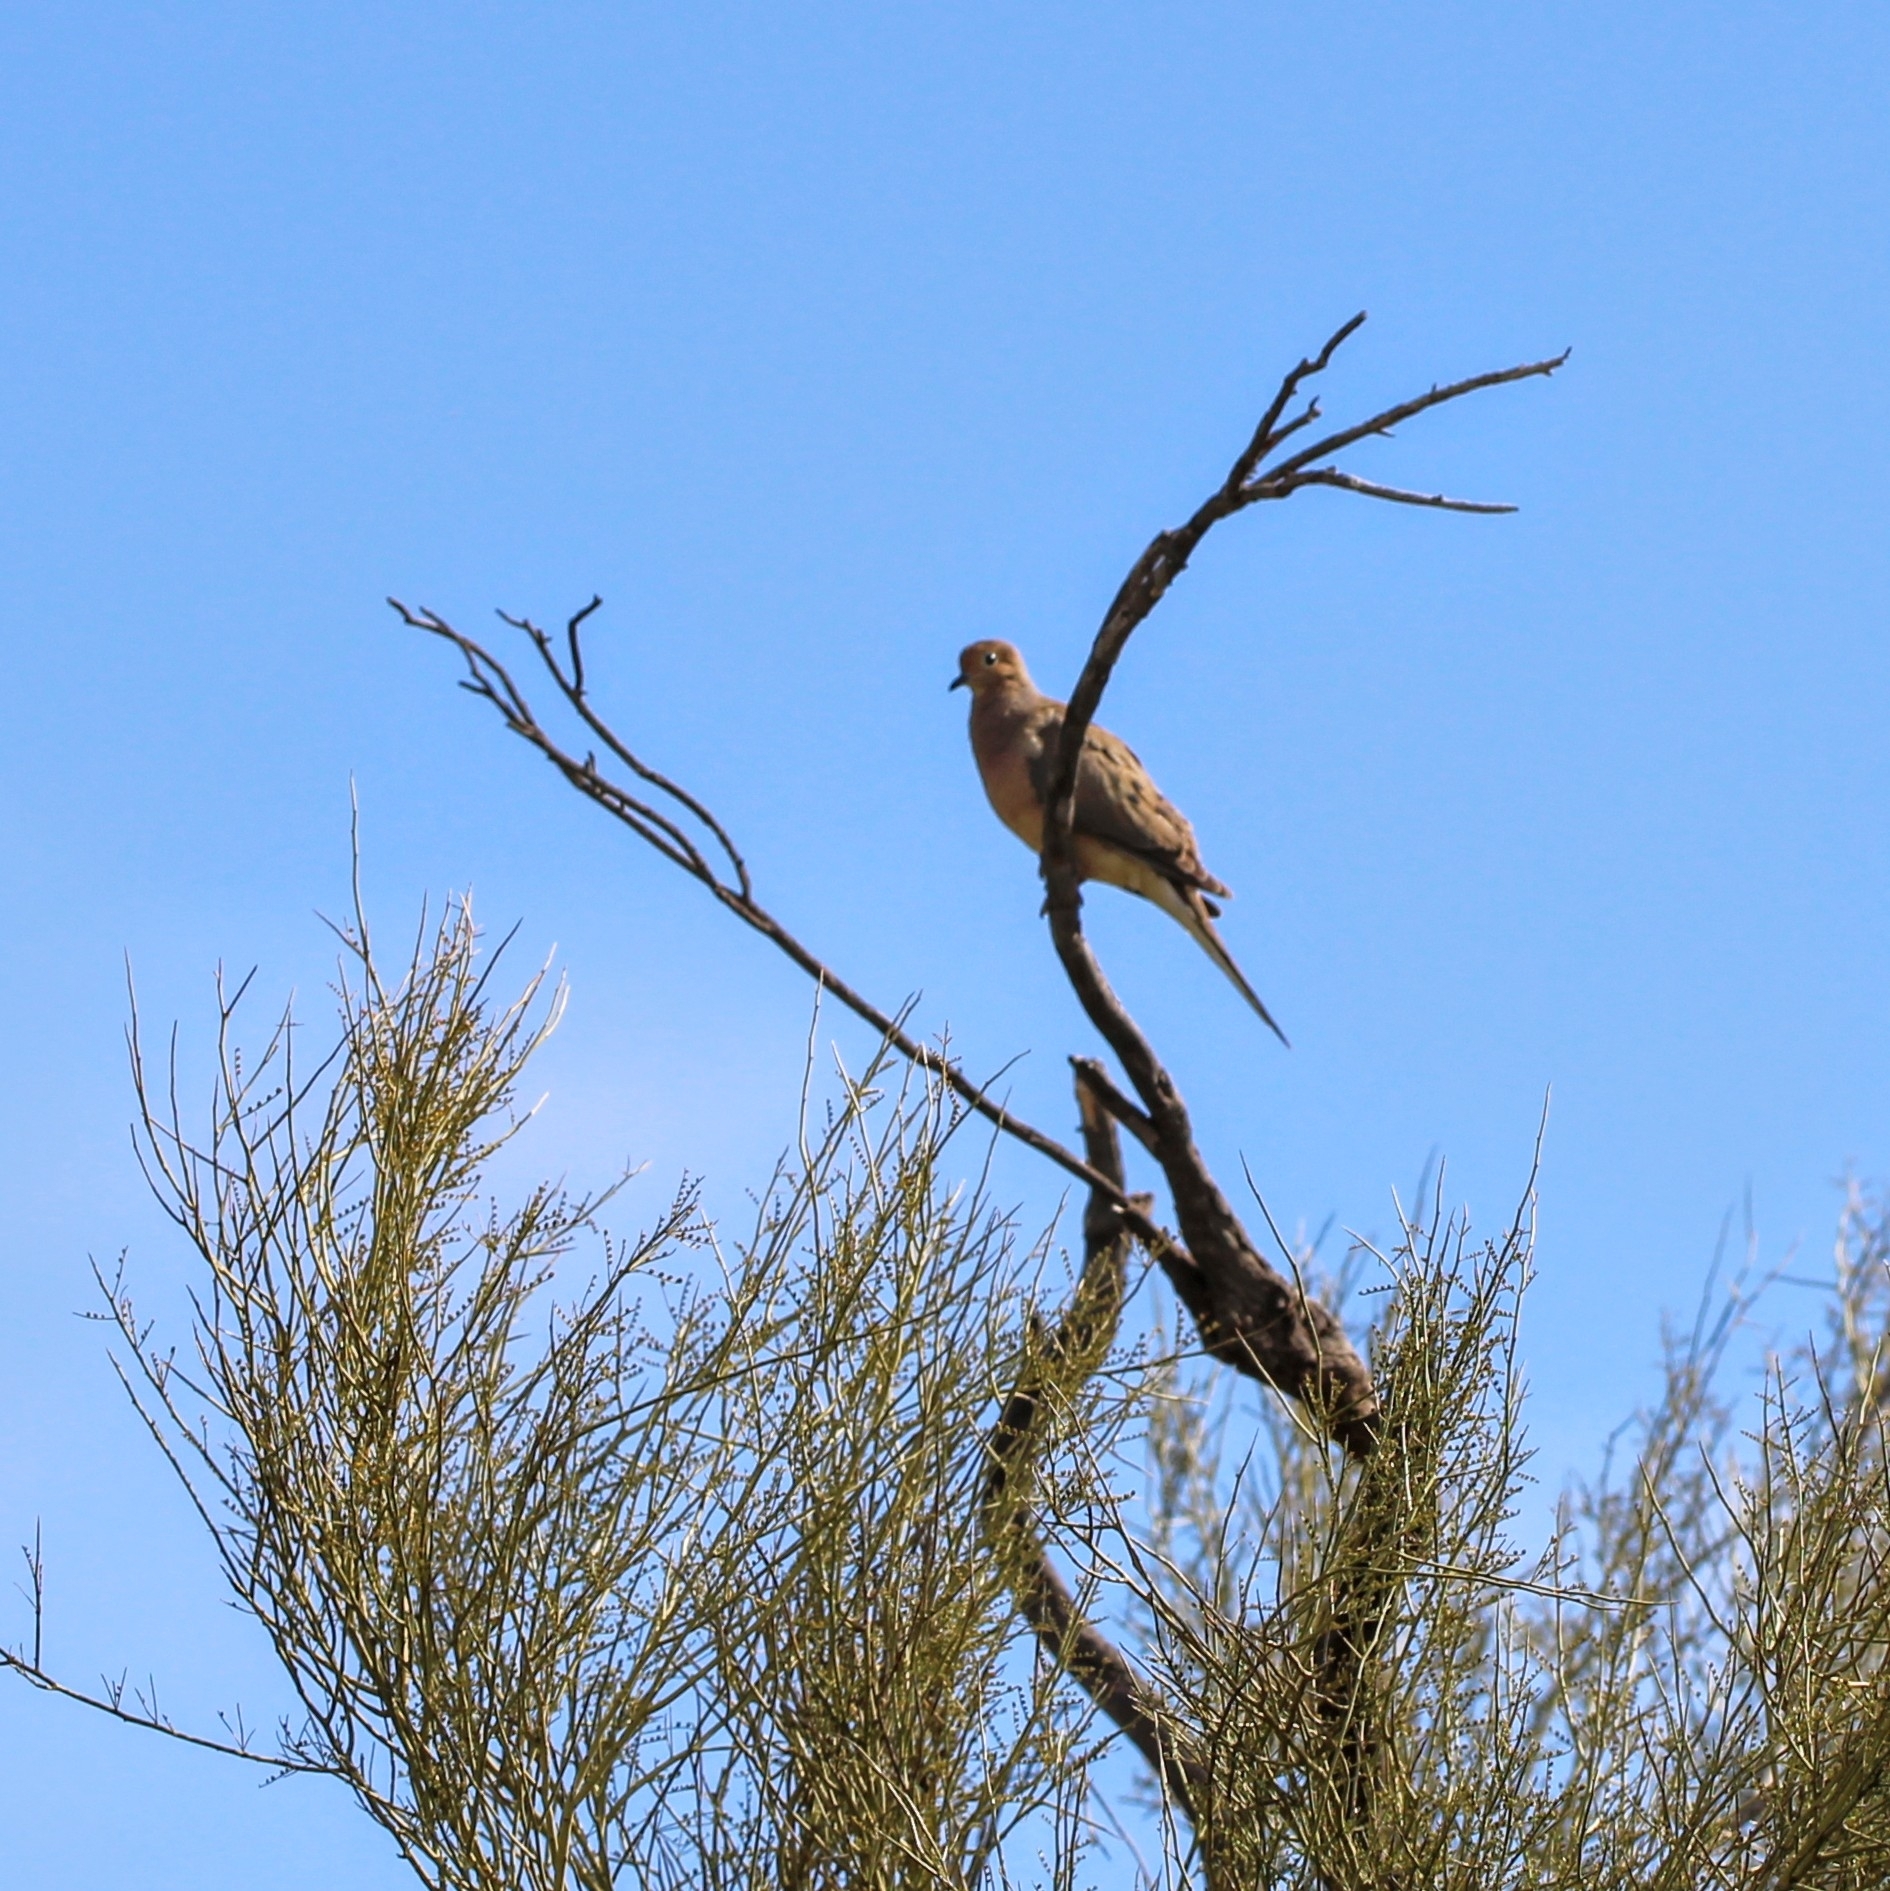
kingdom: Animalia
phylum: Chordata
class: Aves
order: Columbiformes
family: Columbidae
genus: Zenaida
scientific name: Zenaida macroura
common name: Mourning dove
